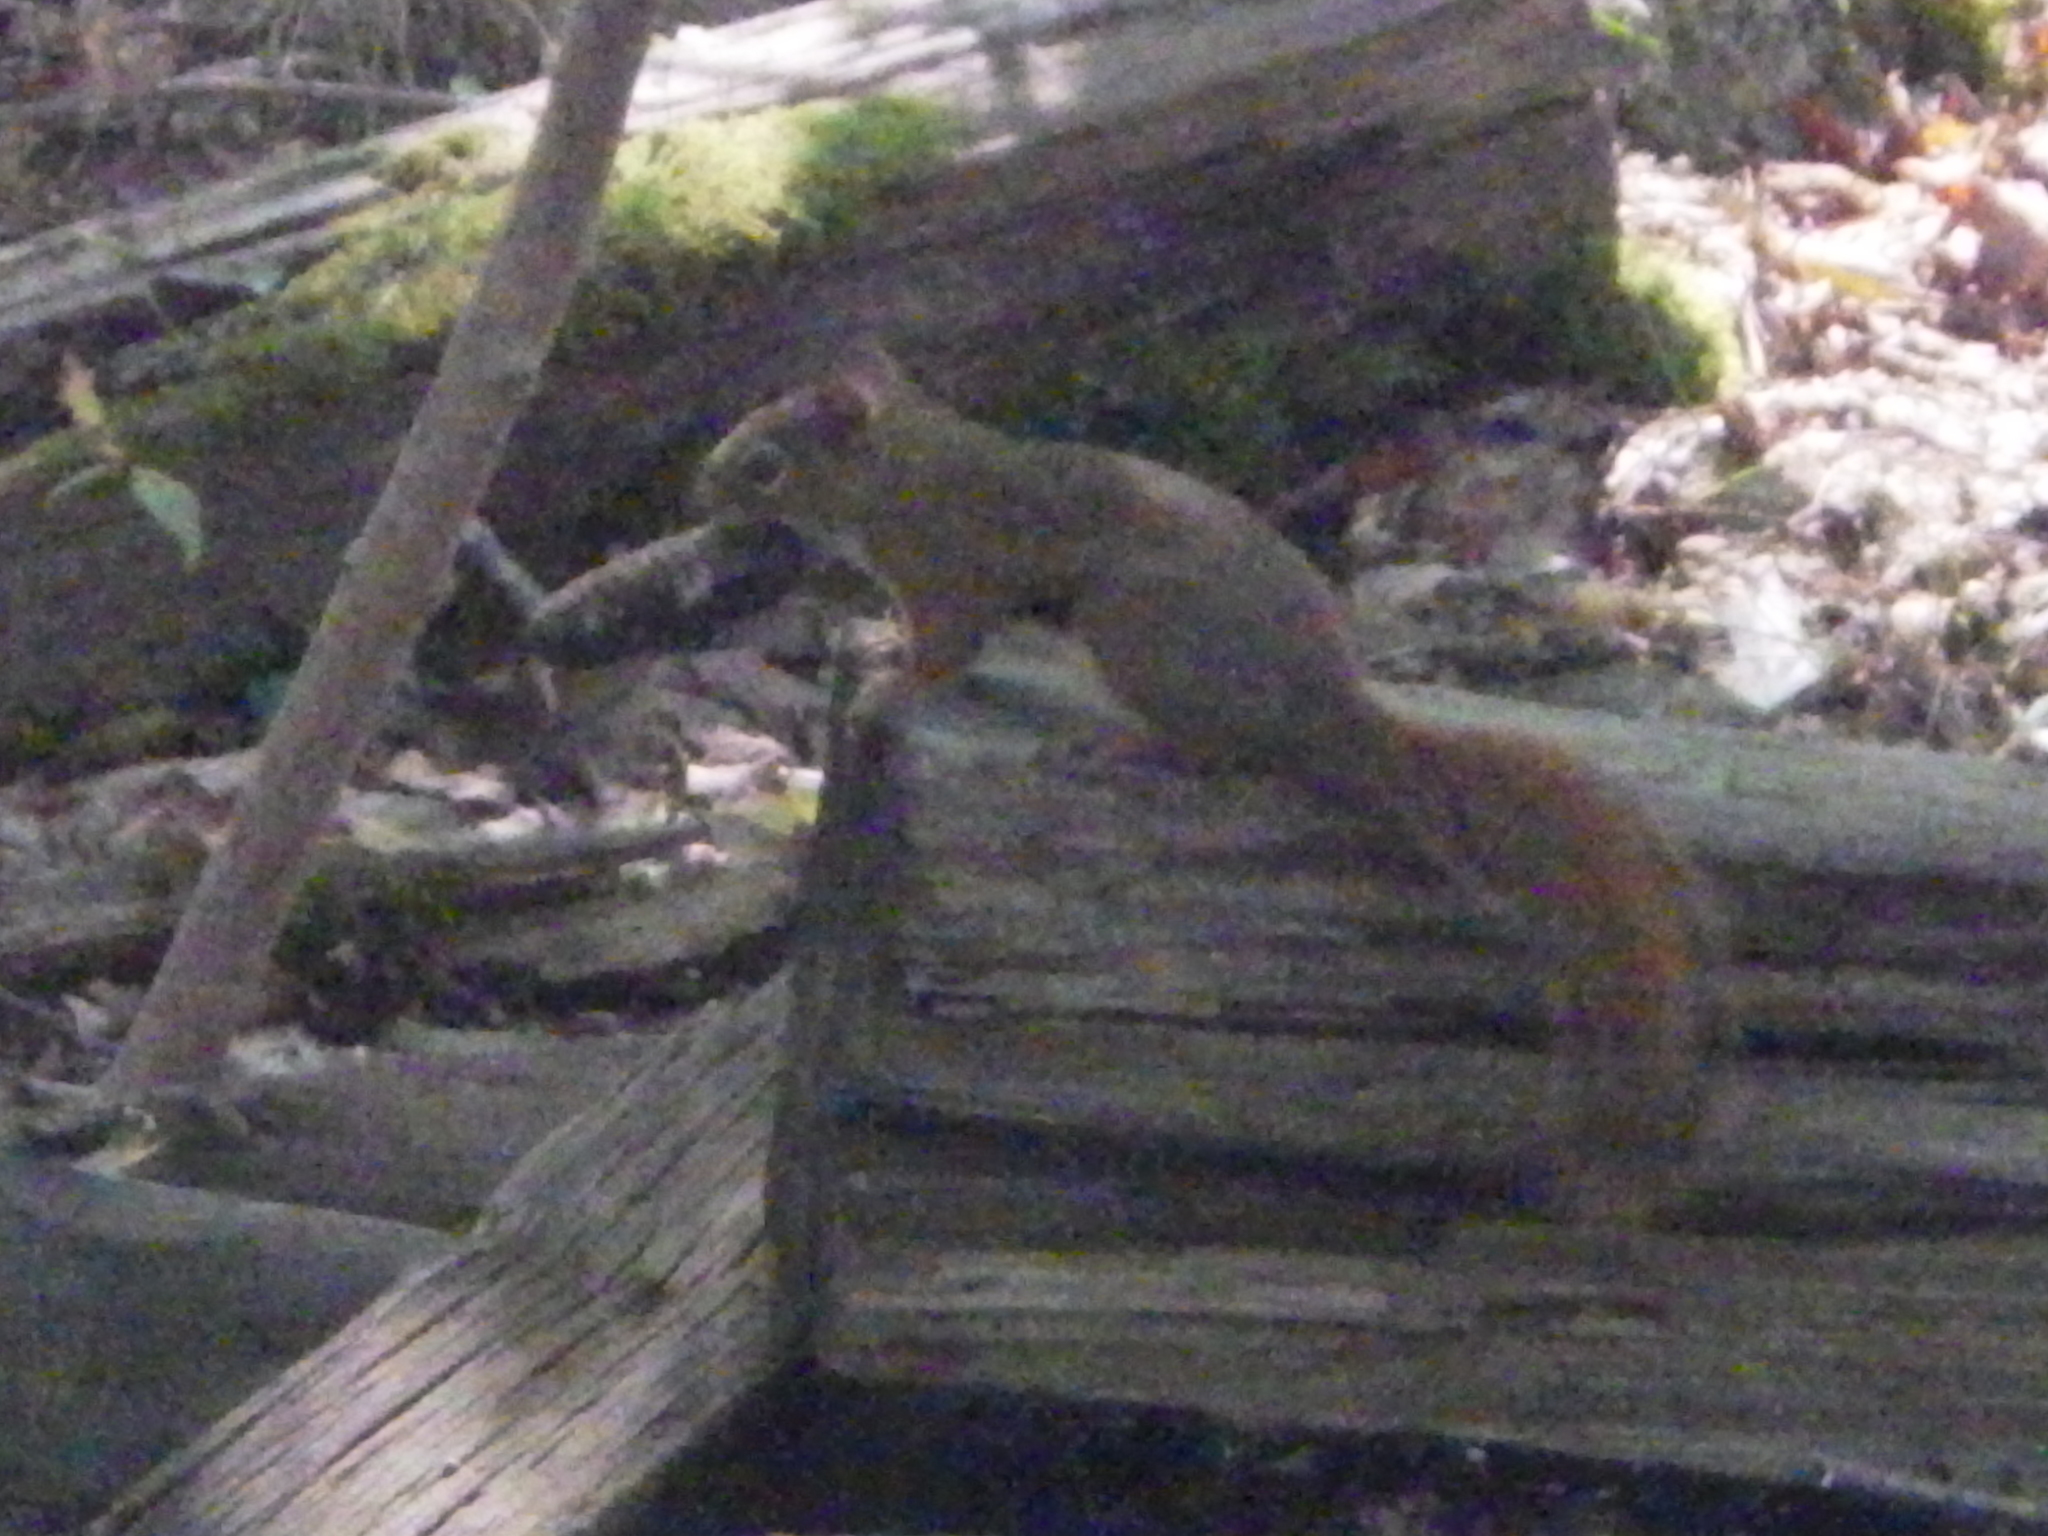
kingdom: Animalia
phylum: Chordata
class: Mammalia
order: Rodentia
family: Sciuridae
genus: Tamiasciurus
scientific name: Tamiasciurus hudsonicus
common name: Red squirrel
